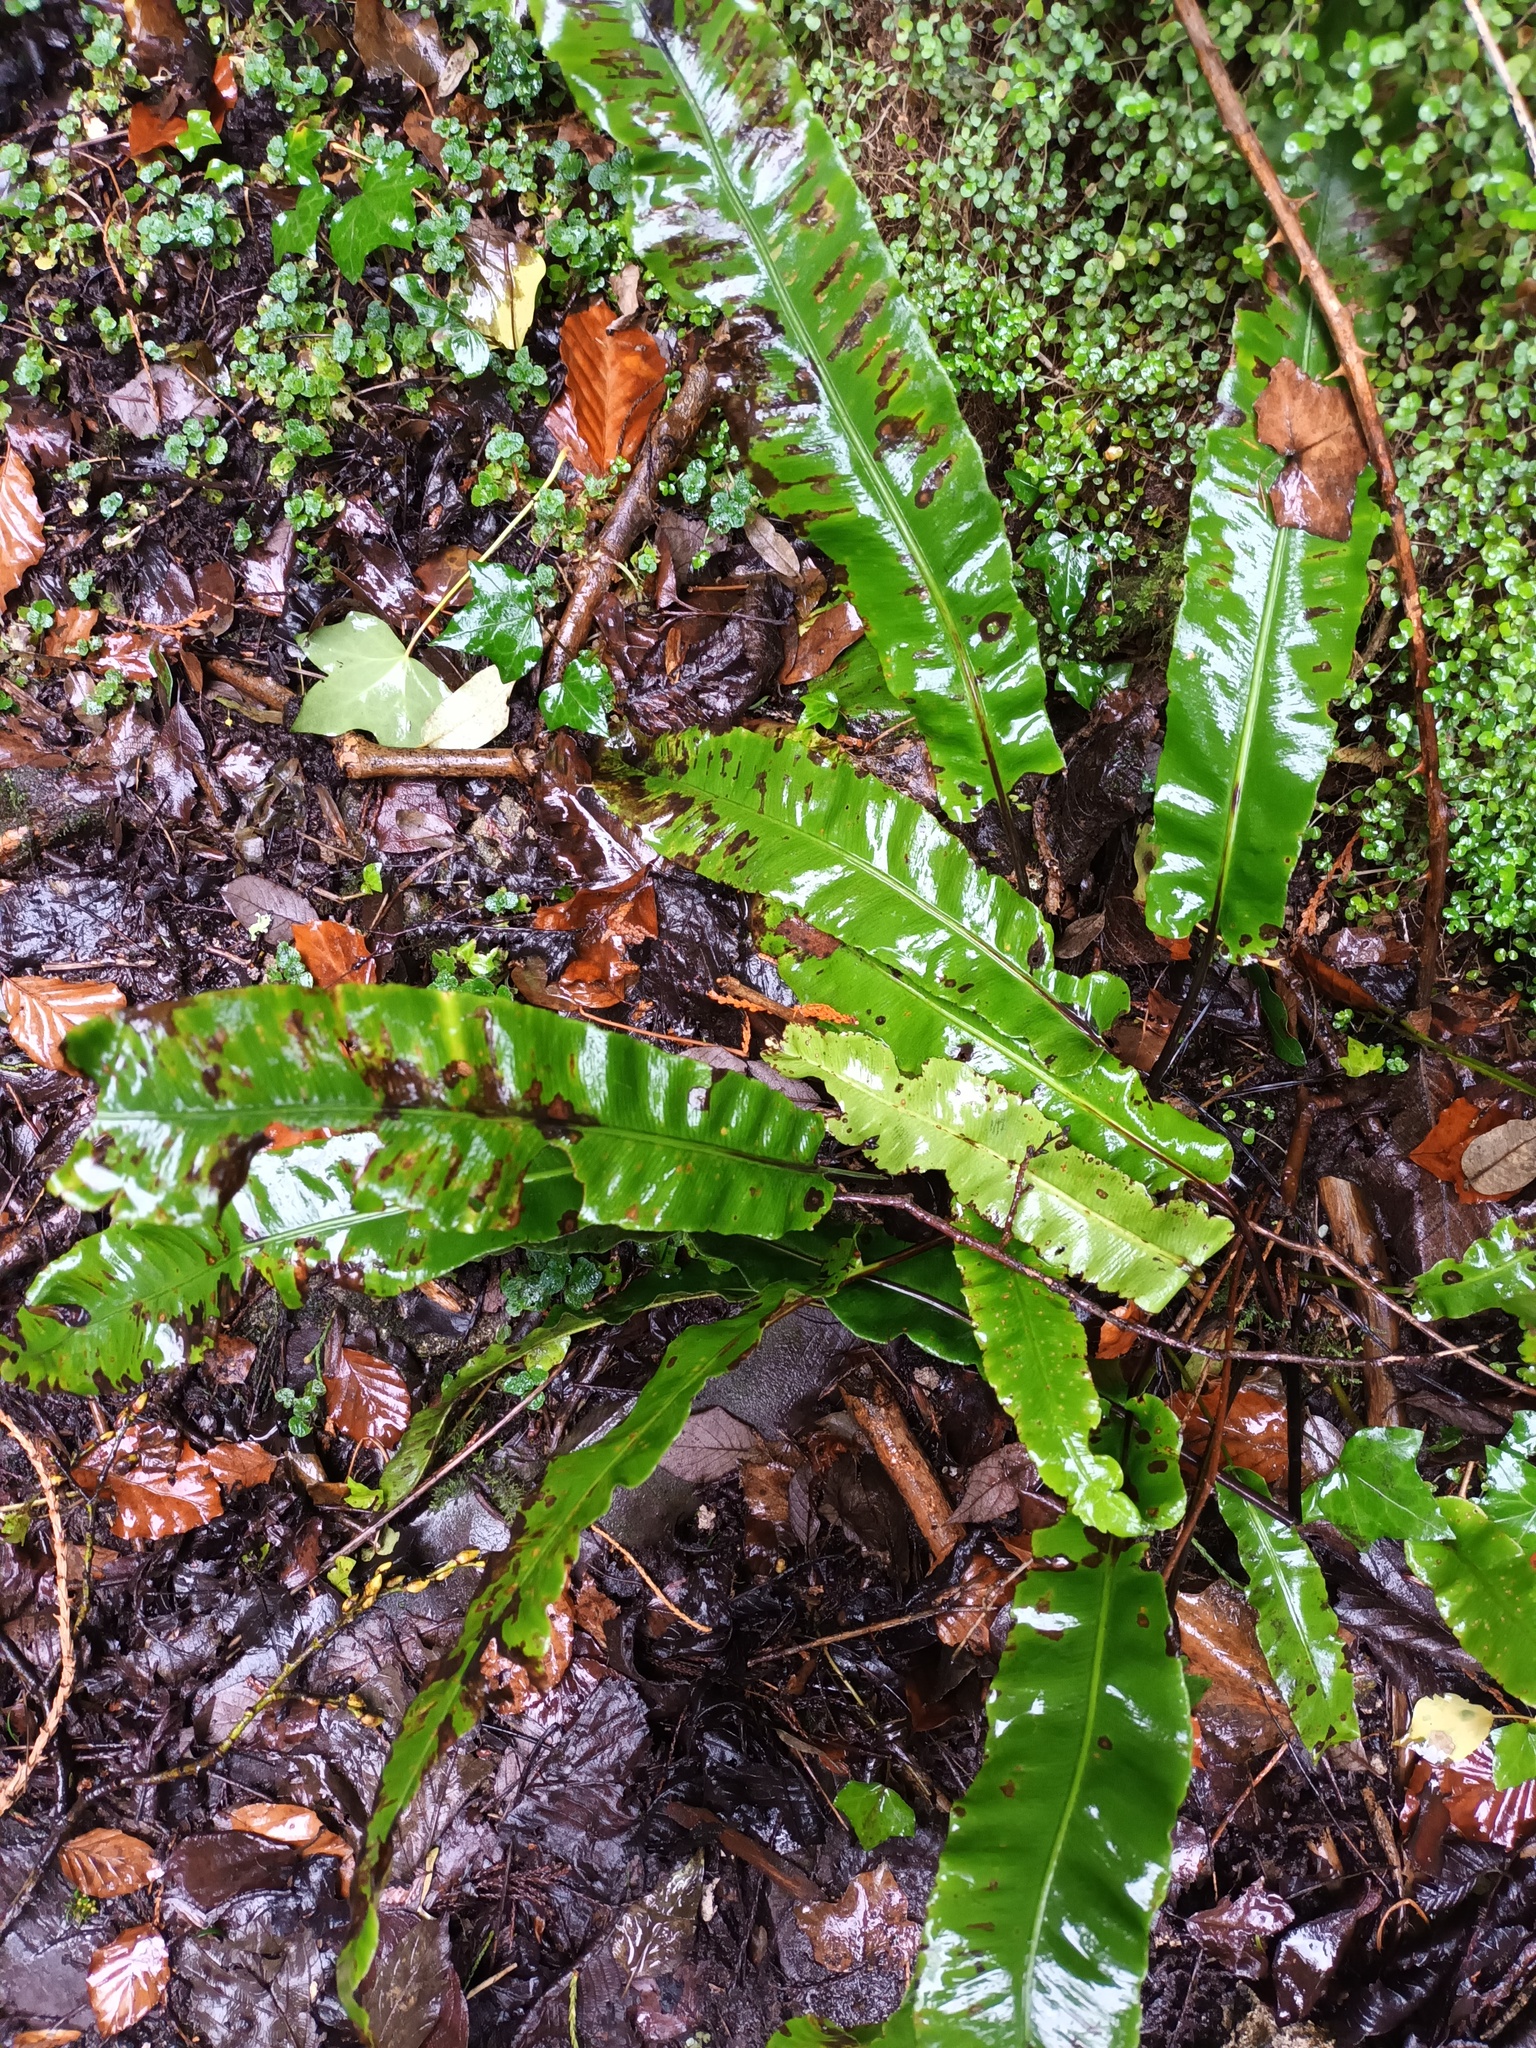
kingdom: Plantae
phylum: Tracheophyta
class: Polypodiopsida
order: Polypodiales
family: Aspleniaceae
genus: Asplenium
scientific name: Asplenium scolopendrium
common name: Hart's-tongue fern
